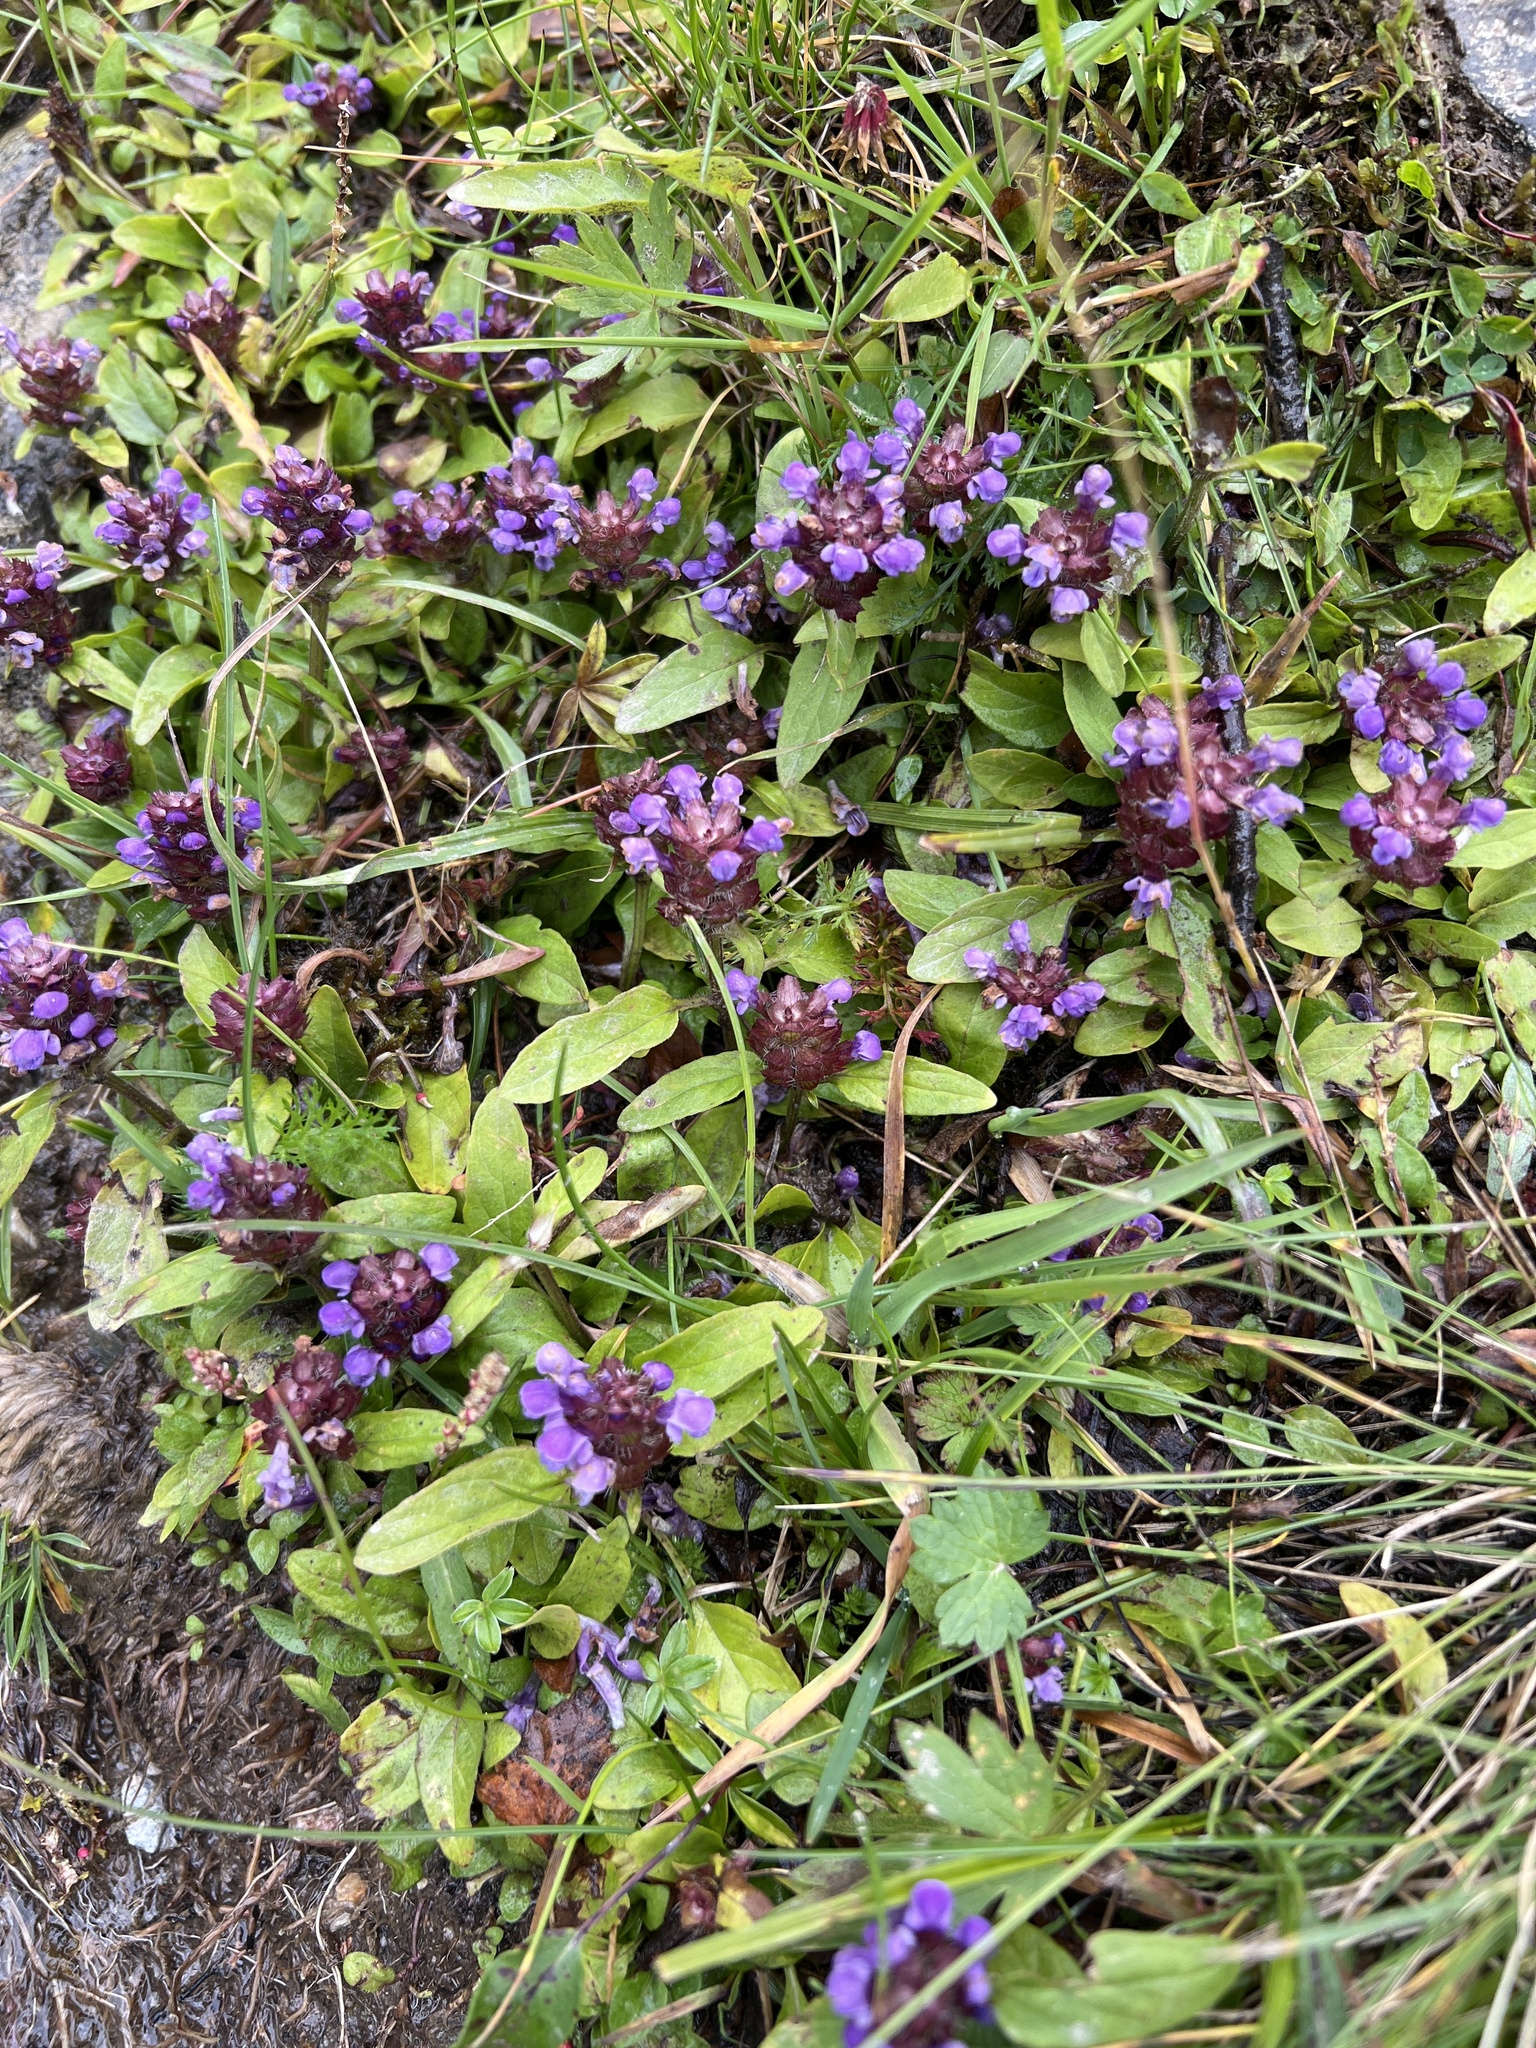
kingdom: Plantae
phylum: Tracheophyta
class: Magnoliopsida
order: Lamiales
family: Lamiaceae
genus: Prunella
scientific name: Prunella vulgaris
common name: Heal-all
